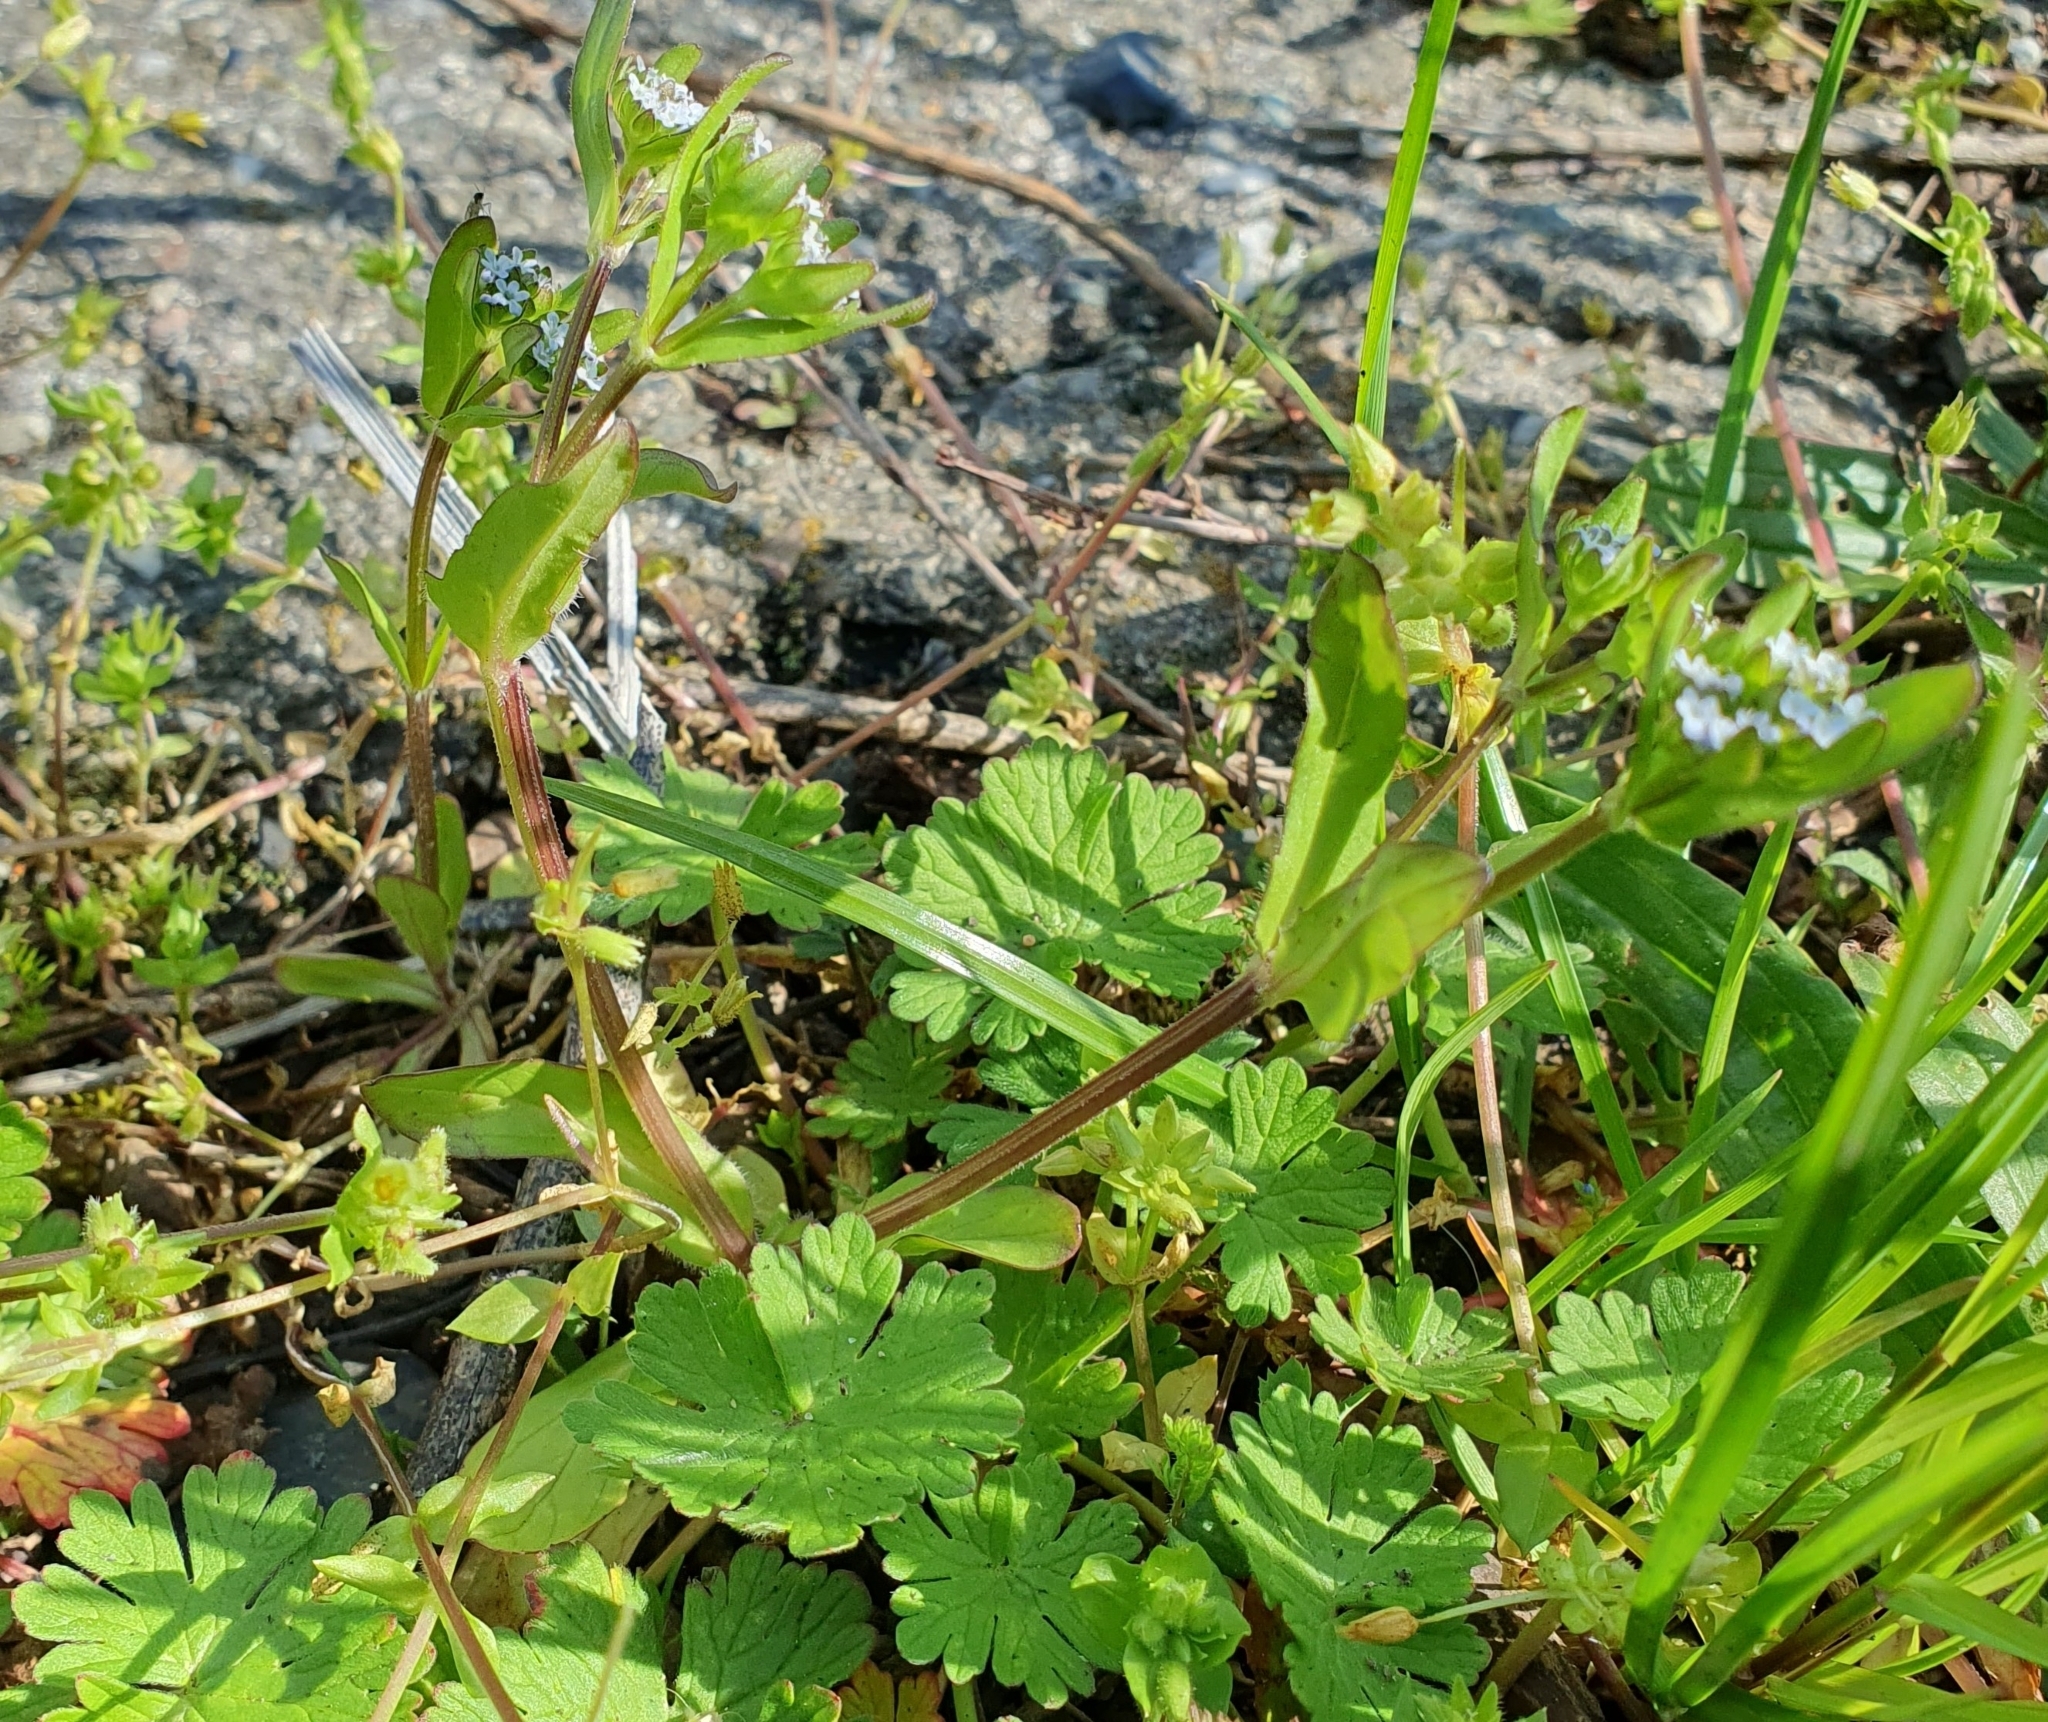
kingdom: Plantae
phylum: Tracheophyta
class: Magnoliopsida
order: Caryophyllales
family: Caryophyllaceae
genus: Stellaria
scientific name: Stellaria apetala
